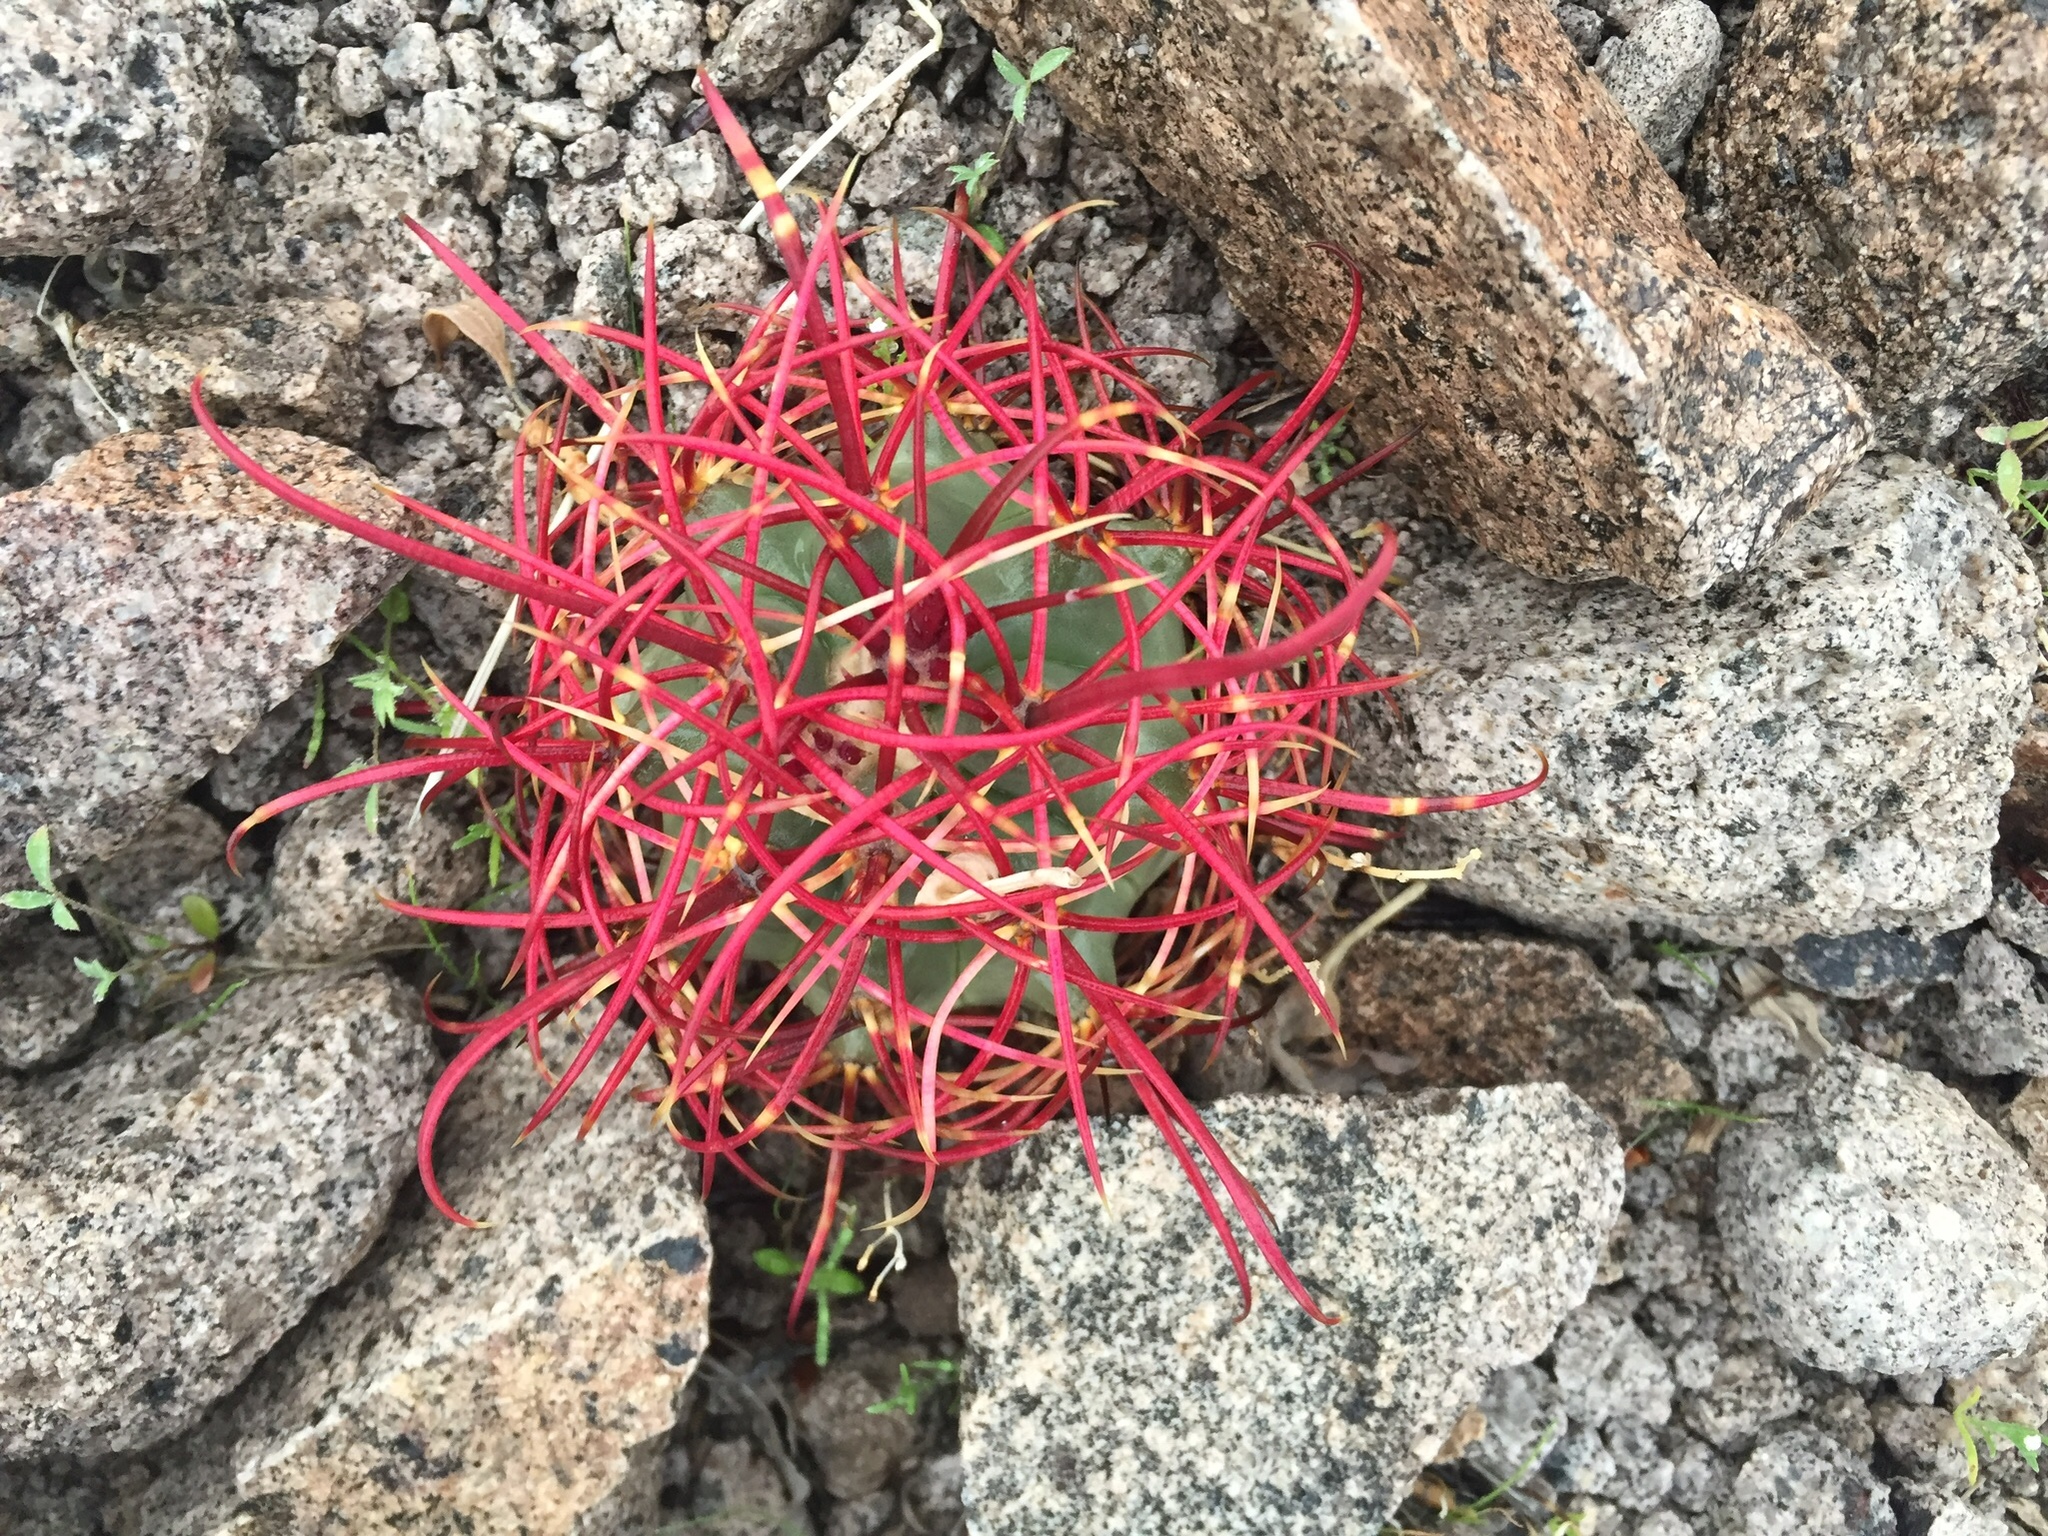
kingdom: Plantae
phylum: Tracheophyta
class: Magnoliopsida
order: Caryophyllales
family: Cactaceae
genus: Ferocactus
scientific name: Ferocactus cylindraceus
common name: California barrel cactus
